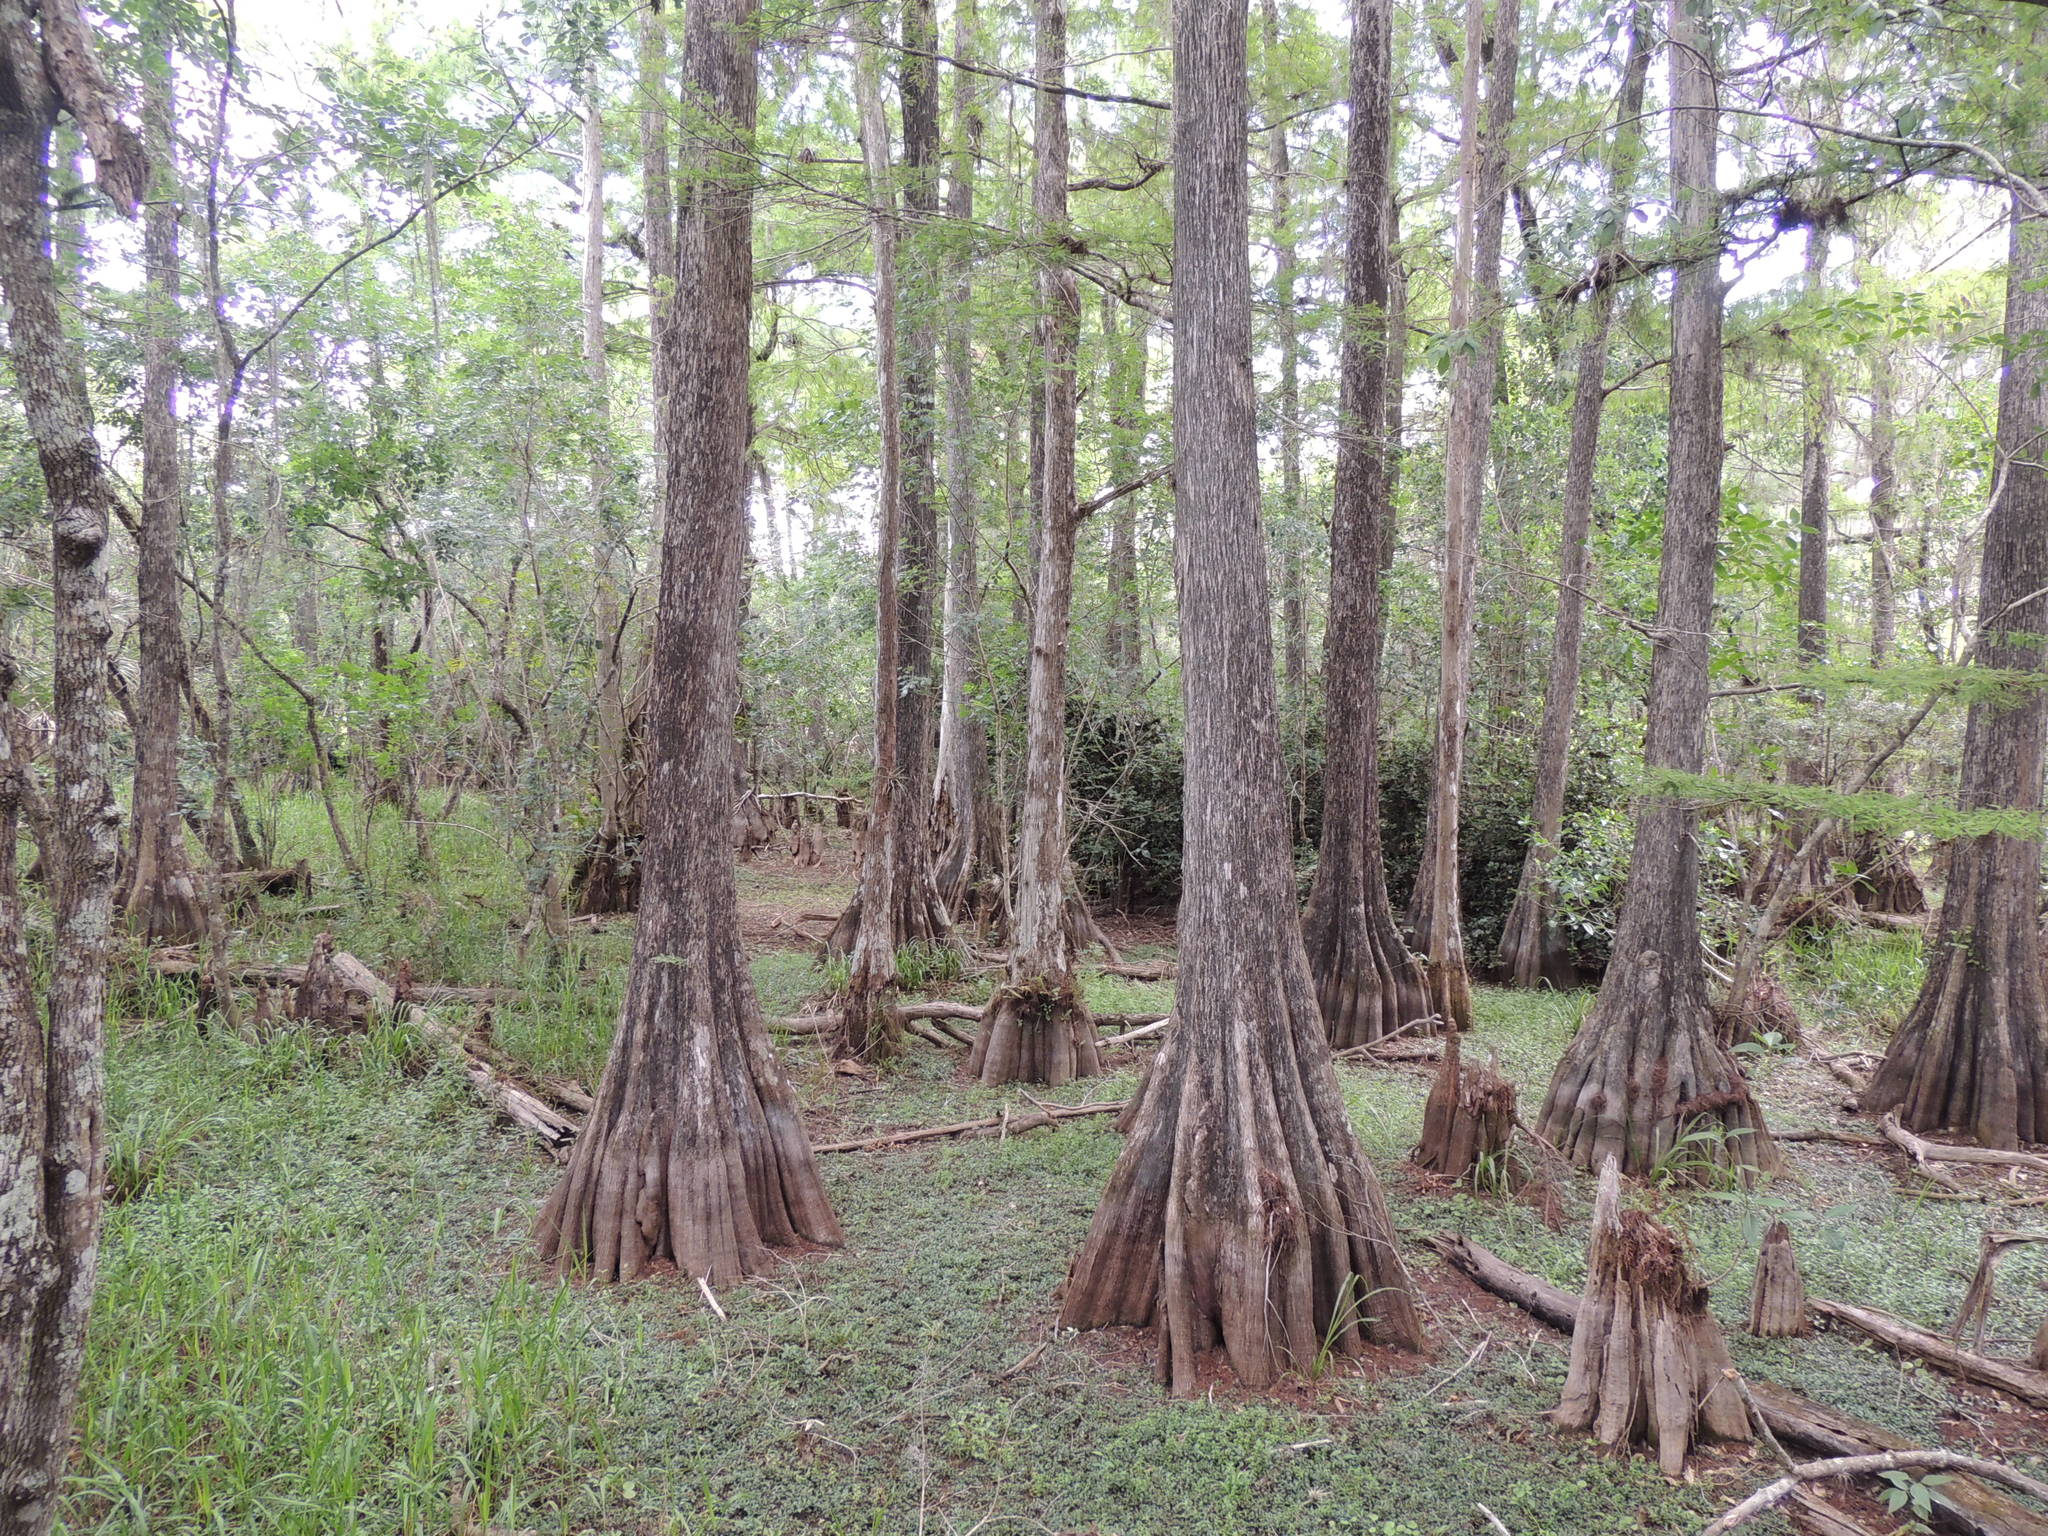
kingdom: Plantae
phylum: Tracheophyta
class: Pinopsida
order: Pinales
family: Cupressaceae
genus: Taxodium
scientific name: Taxodium distichum
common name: Bald cypress
